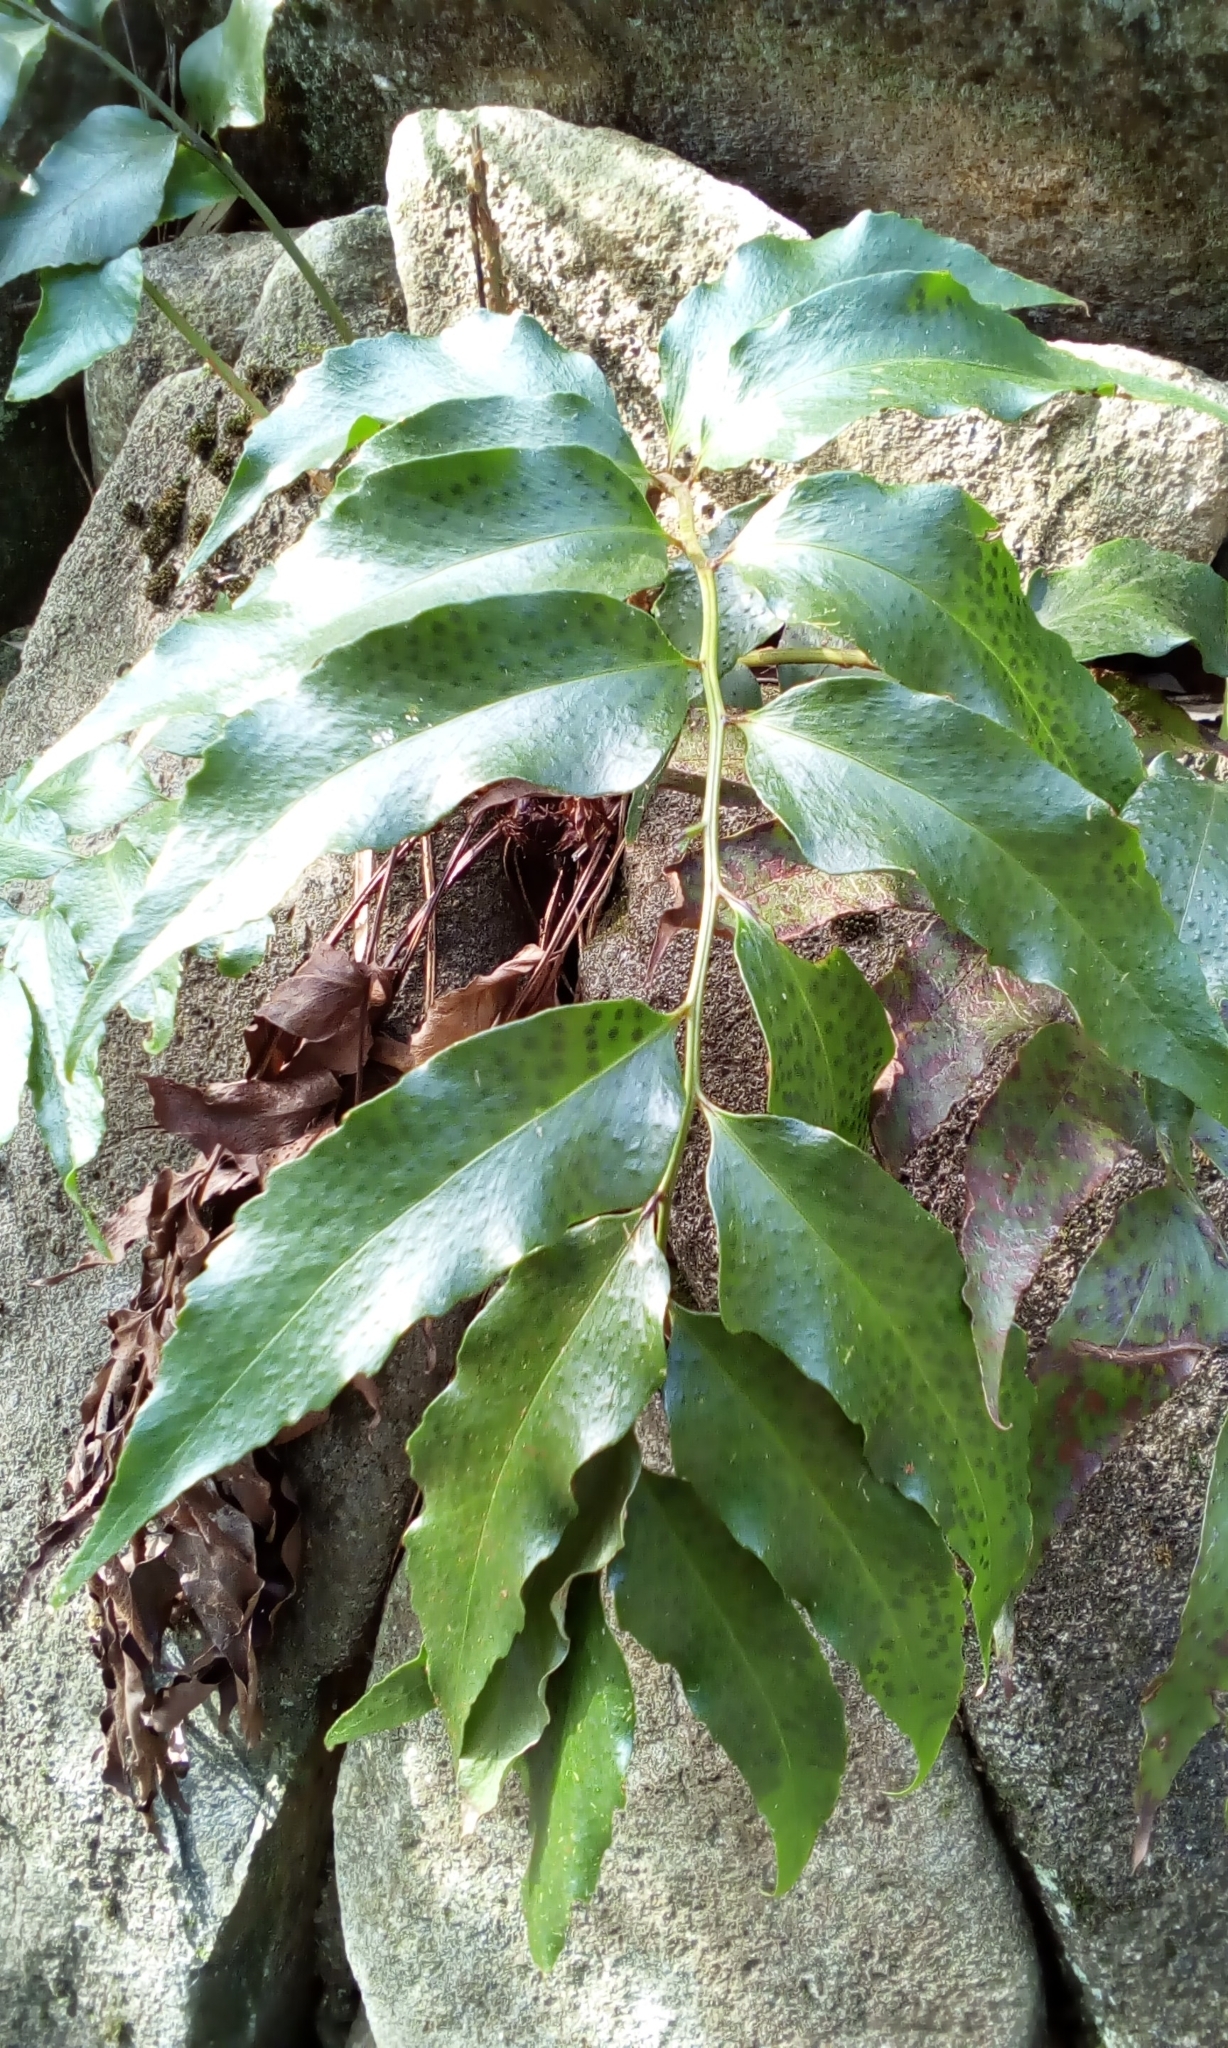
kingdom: Plantae
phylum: Tracheophyta
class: Polypodiopsida
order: Polypodiales
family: Dryopteridaceae
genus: Cyrtomium
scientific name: Cyrtomium falcatum
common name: House holly-fern
